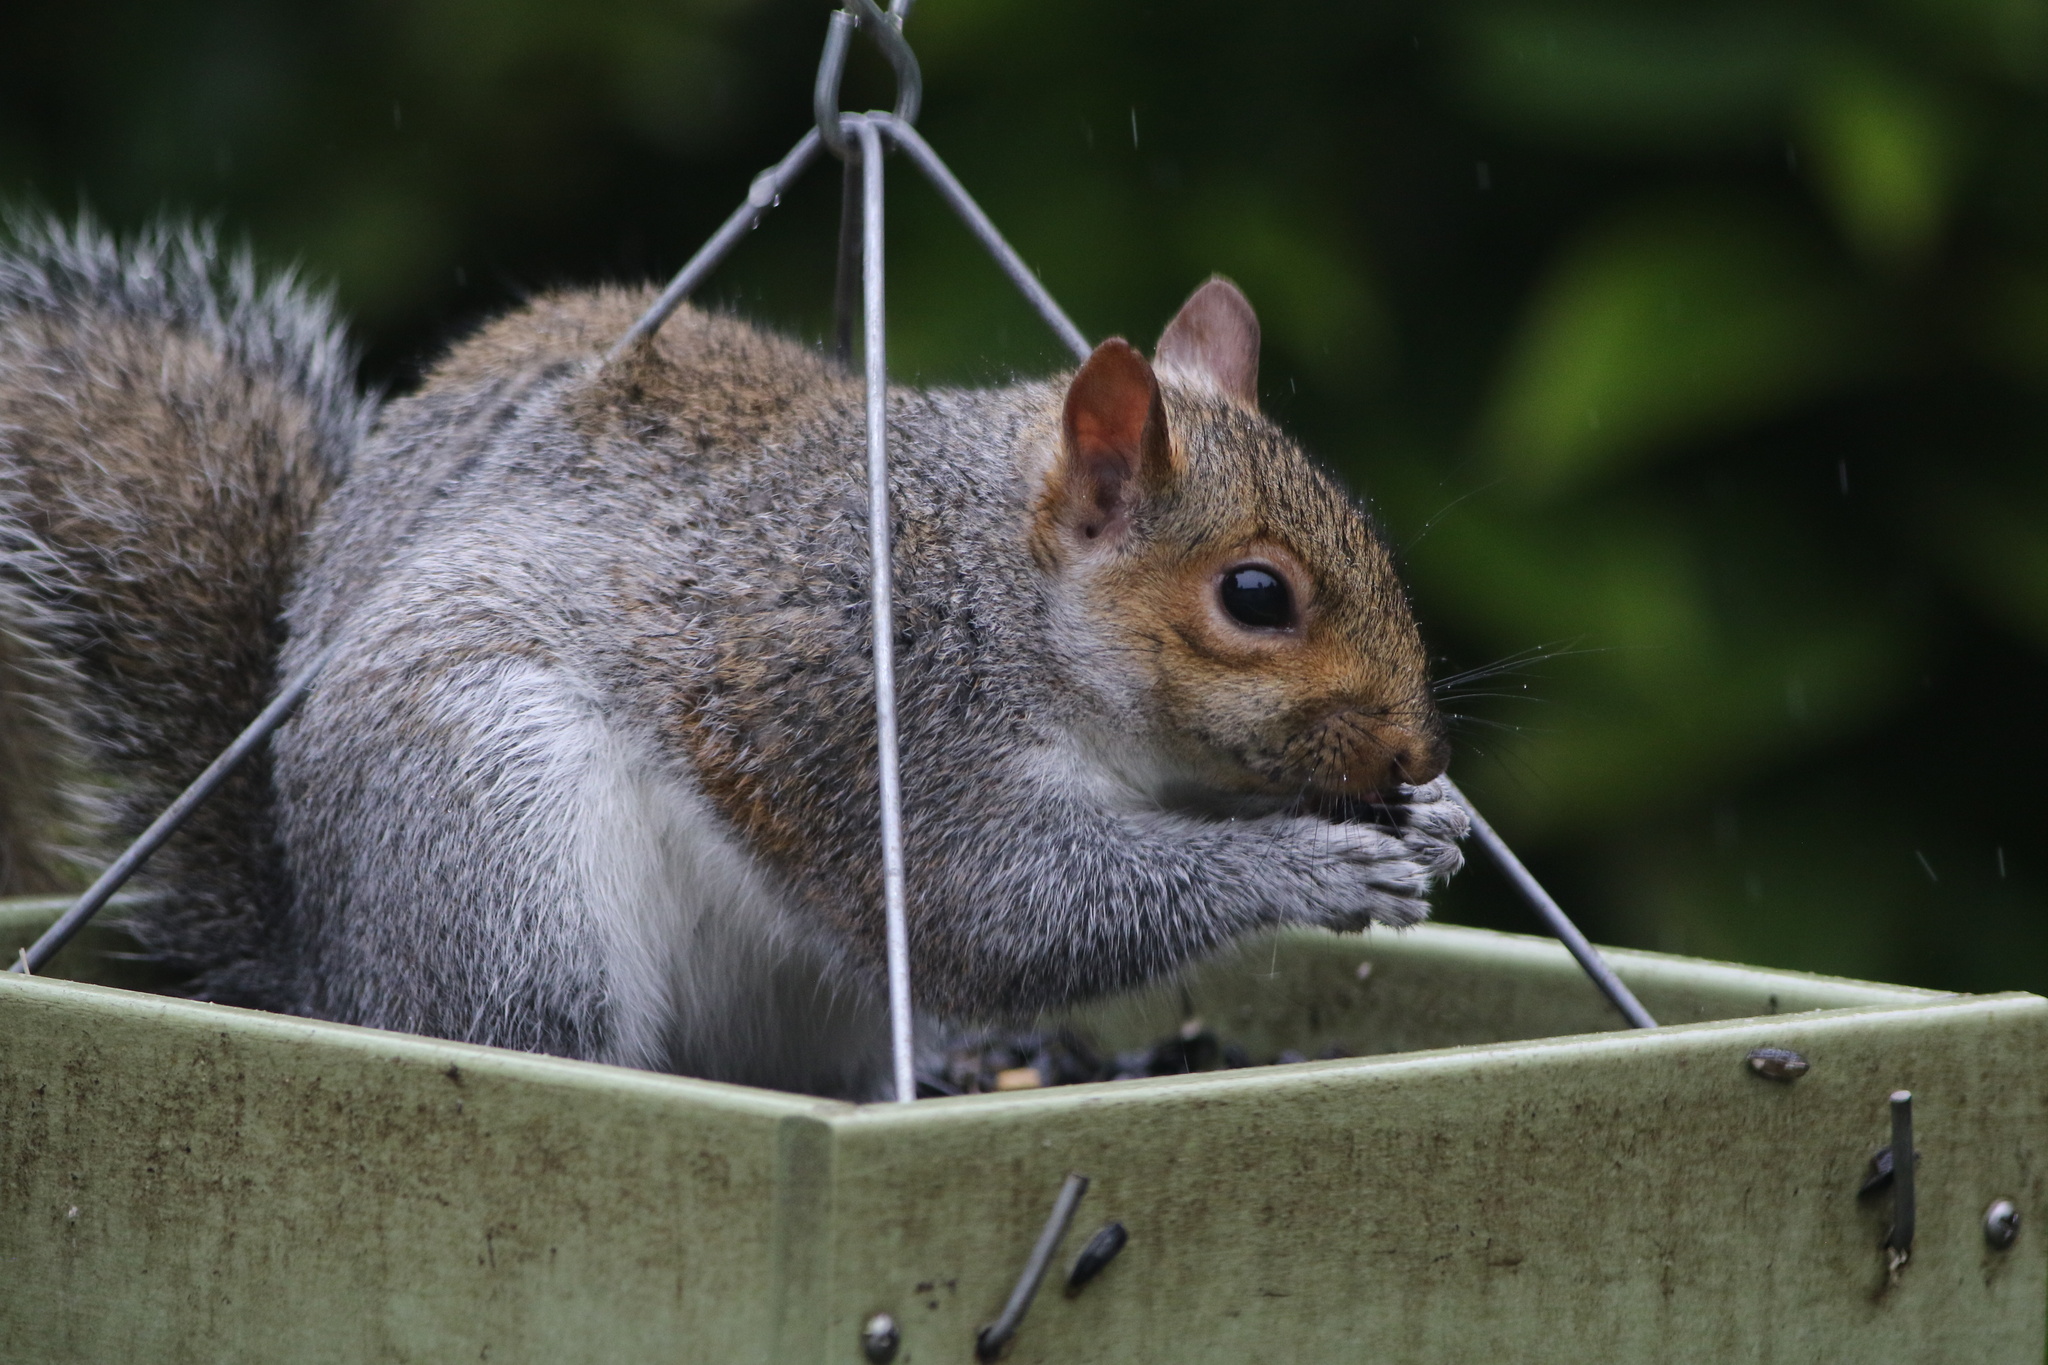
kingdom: Animalia
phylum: Chordata
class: Mammalia
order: Rodentia
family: Sciuridae
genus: Sciurus
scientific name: Sciurus carolinensis
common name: Eastern gray squirrel
